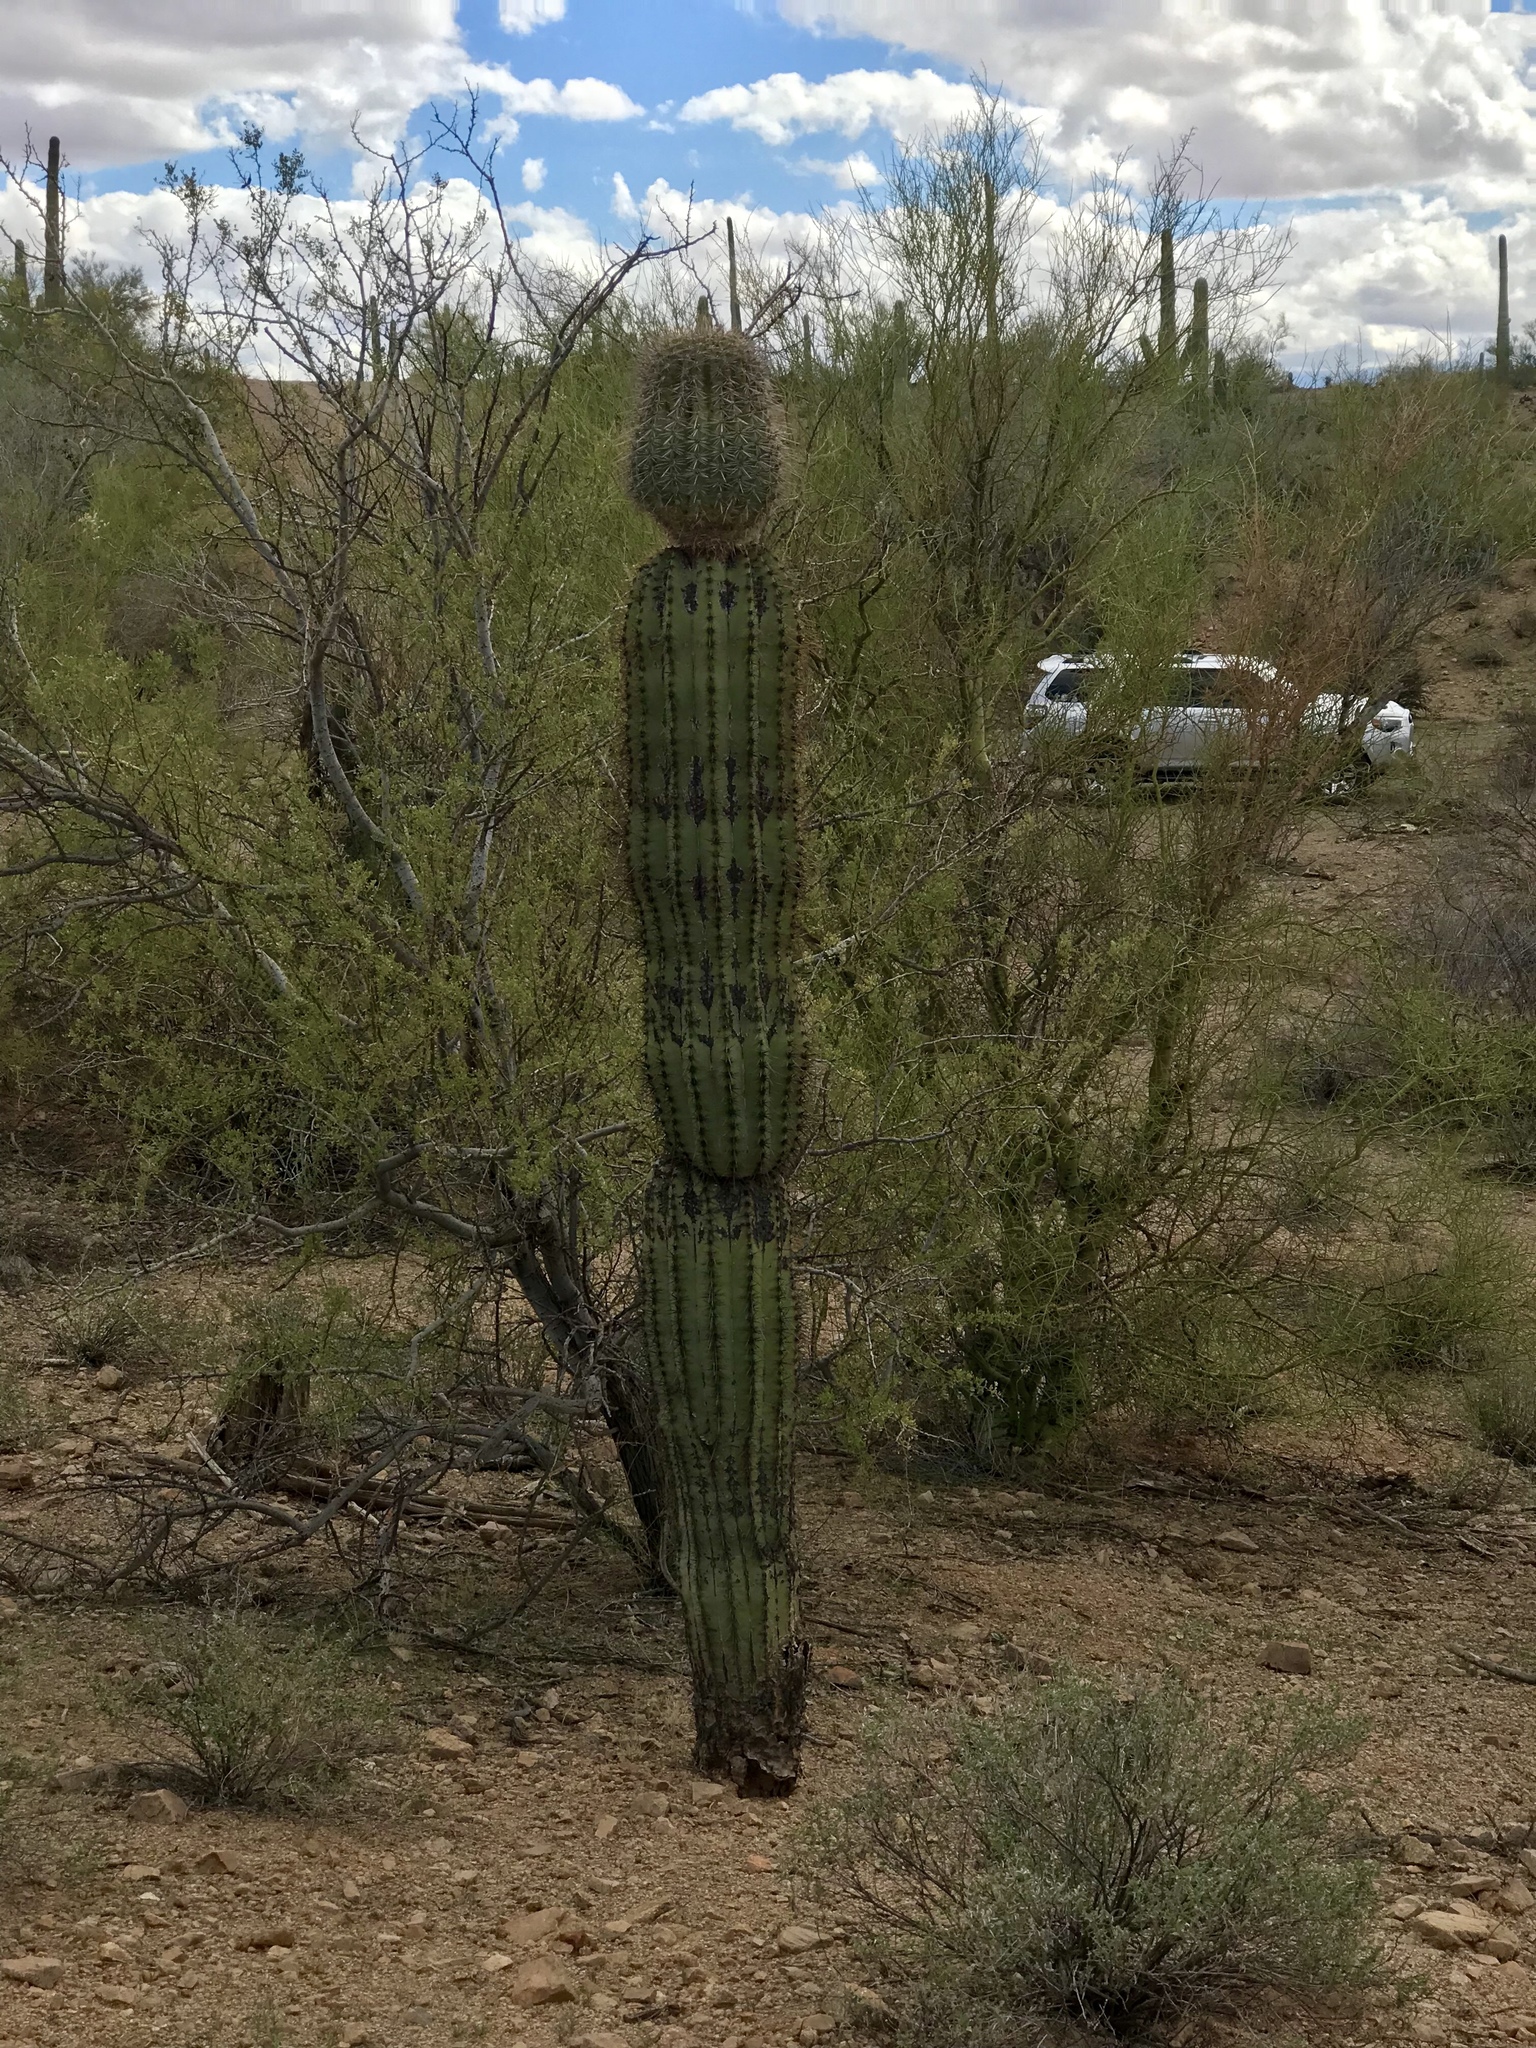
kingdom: Plantae
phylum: Tracheophyta
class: Magnoliopsida
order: Caryophyllales
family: Cactaceae
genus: Carnegiea
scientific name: Carnegiea gigantea
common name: Saguaro
